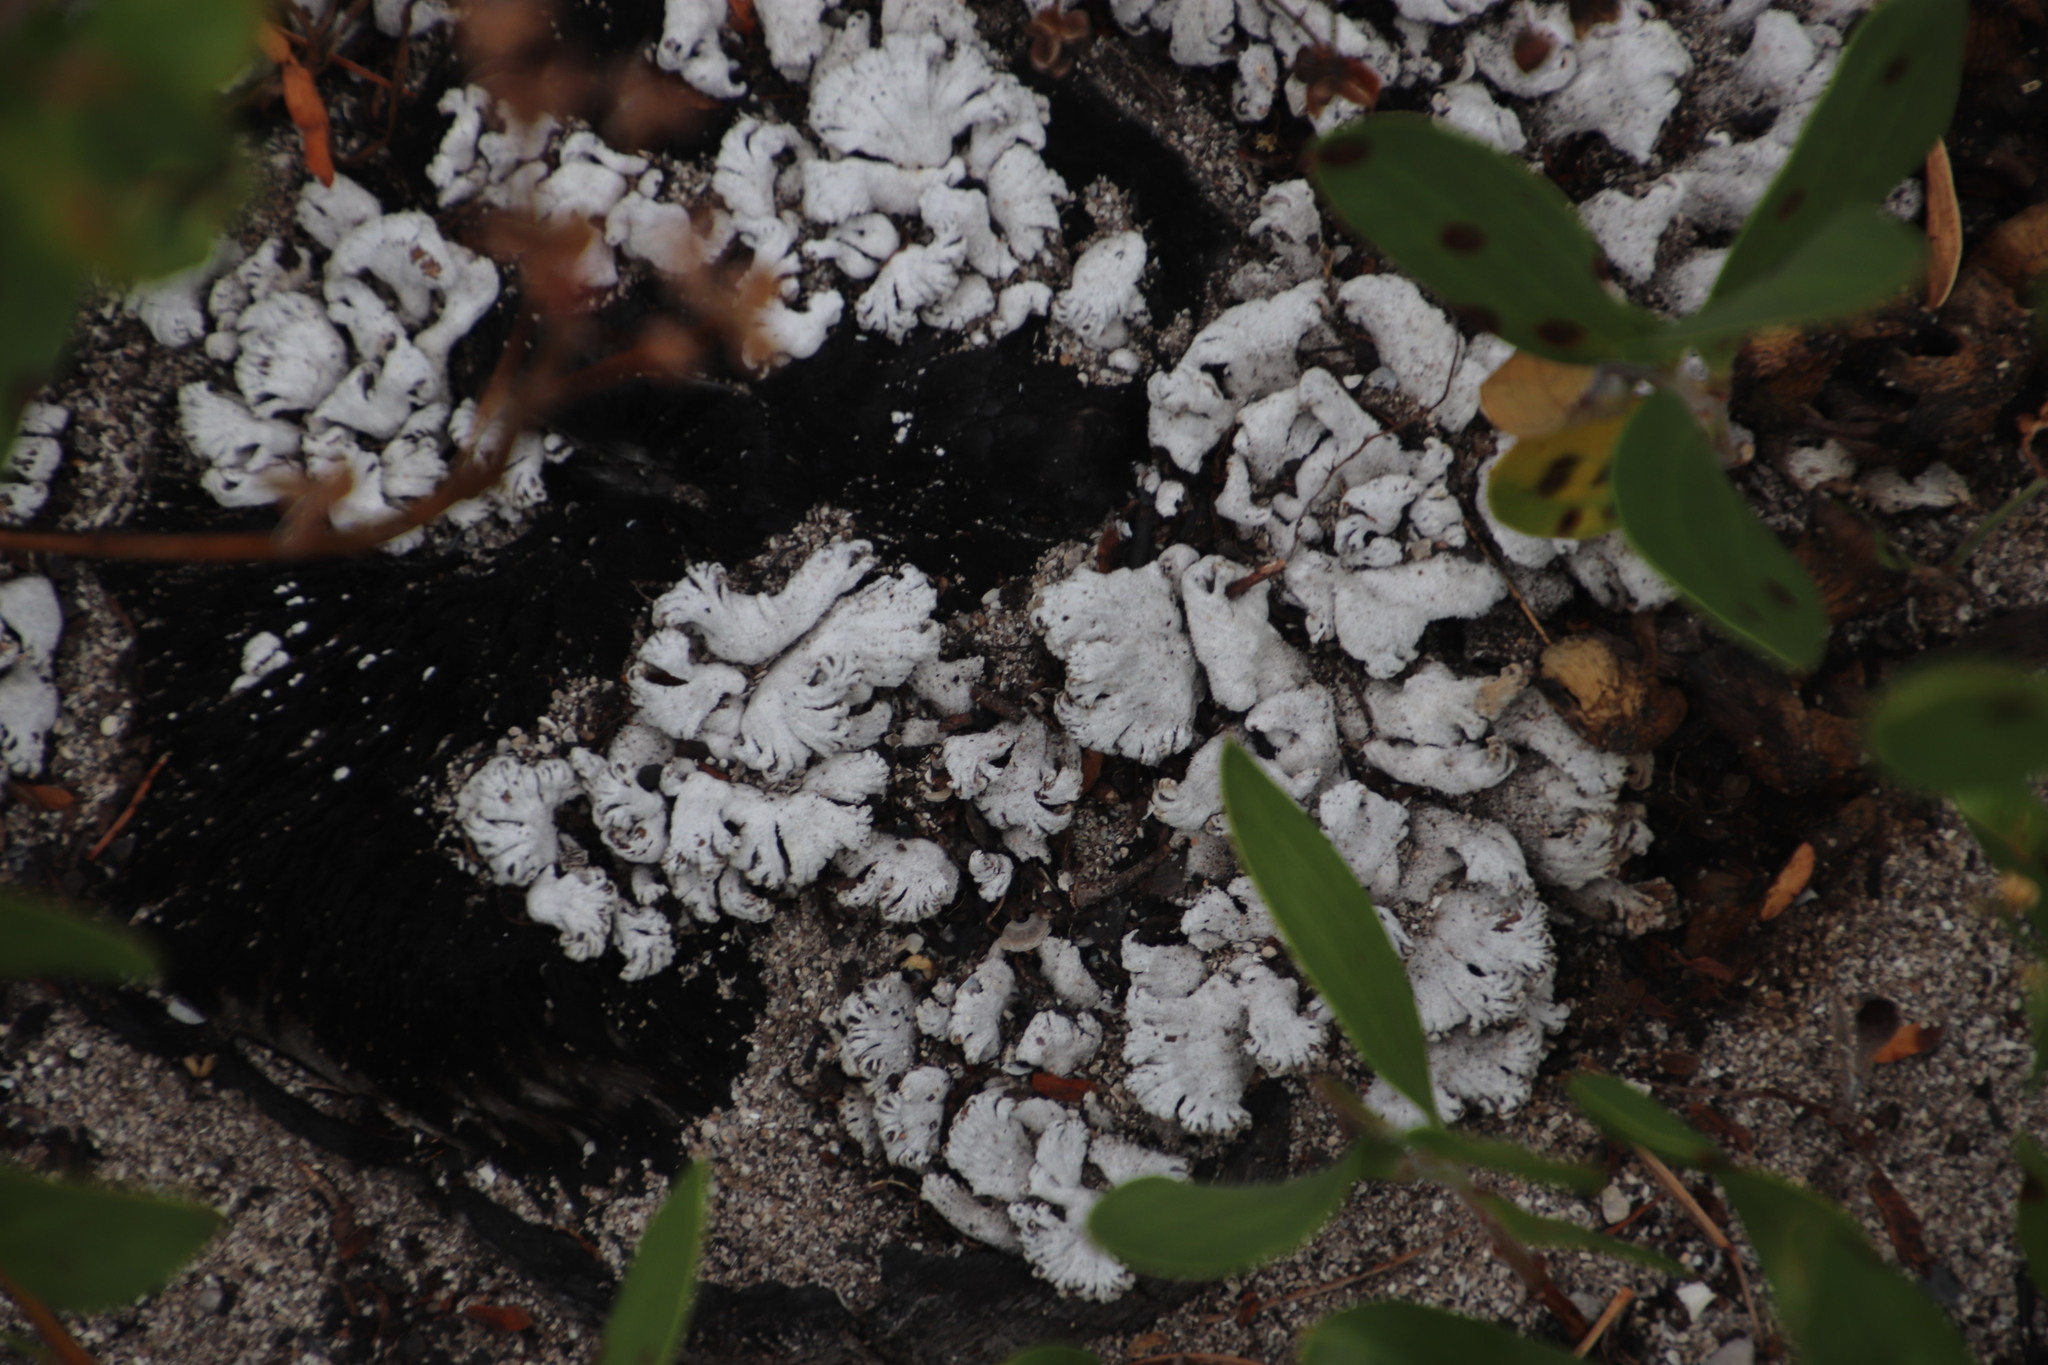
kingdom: Fungi
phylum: Basidiomycota
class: Agaricomycetes
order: Agaricales
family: Schizophyllaceae
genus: Schizophyllum
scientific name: Schizophyllum commune
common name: Common porecrust
